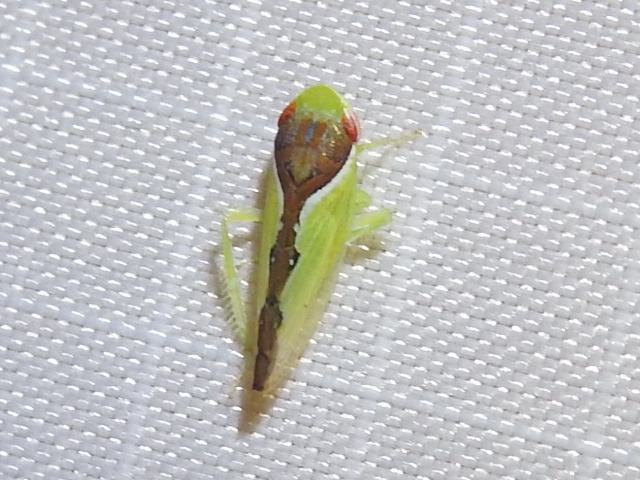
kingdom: Animalia
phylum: Arthropoda
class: Insecta
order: Hemiptera
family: Cicadellidae
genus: Omansobara ing
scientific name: Omansobara ing Omansobara palliolata
